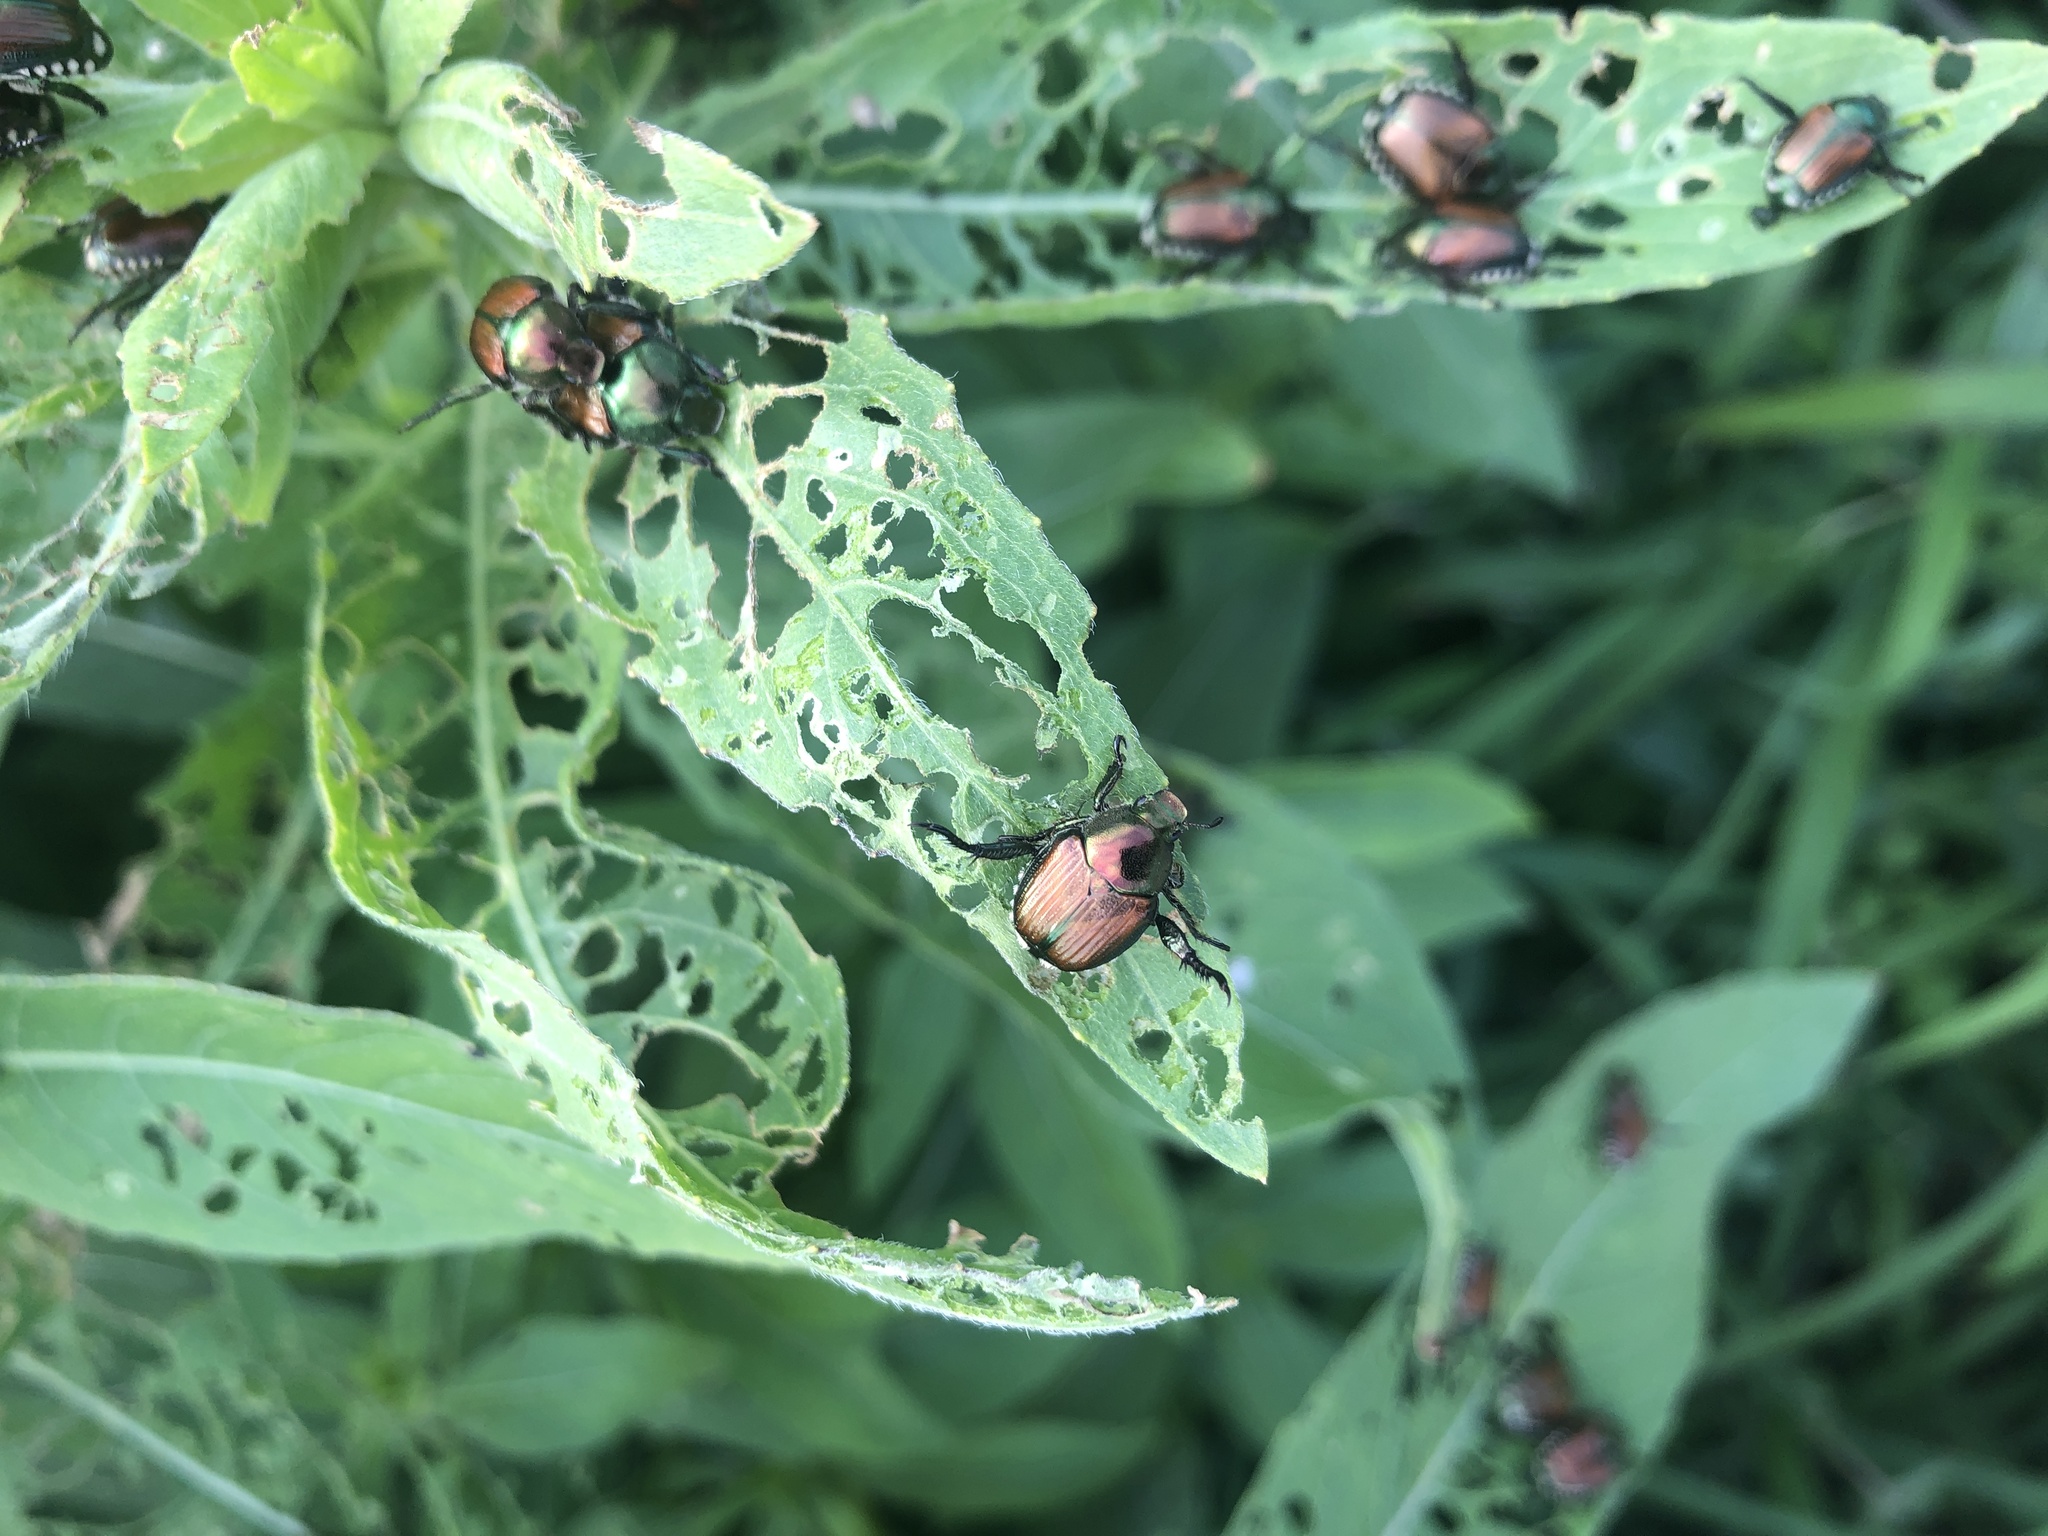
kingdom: Animalia
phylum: Arthropoda
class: Insecta
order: Coleoptera
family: Scarabaeidae
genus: Popillia
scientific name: Popillia japonica
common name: Japanese beetle
